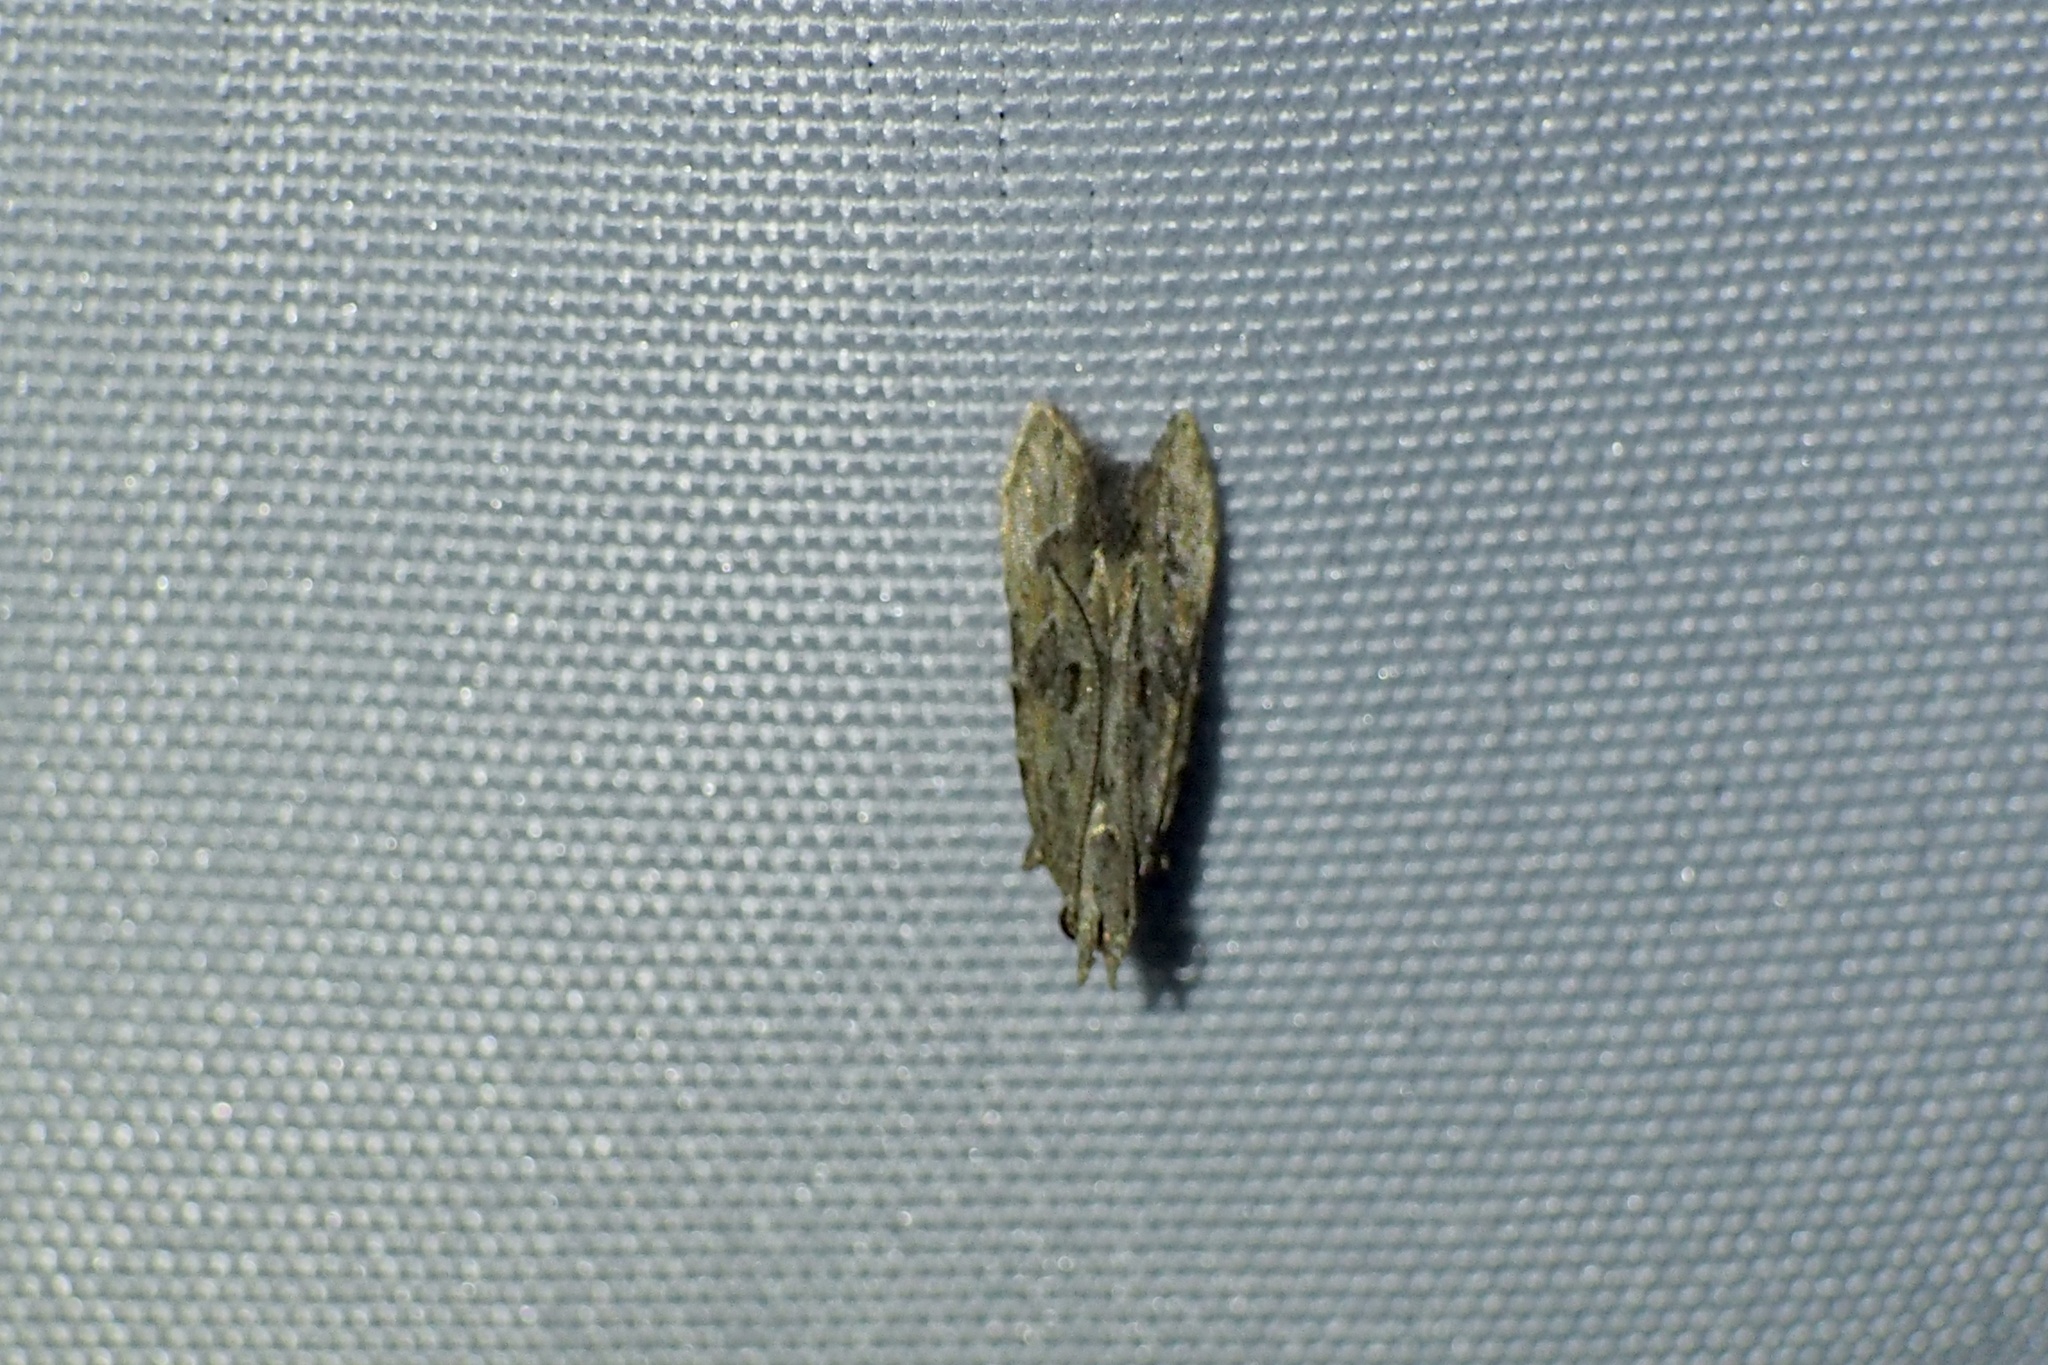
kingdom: Animalia
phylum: Arthropoda
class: Insecta
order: Lepidoptera
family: Gelechiidae
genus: Bagdadia
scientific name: Bagdadia claviformis
